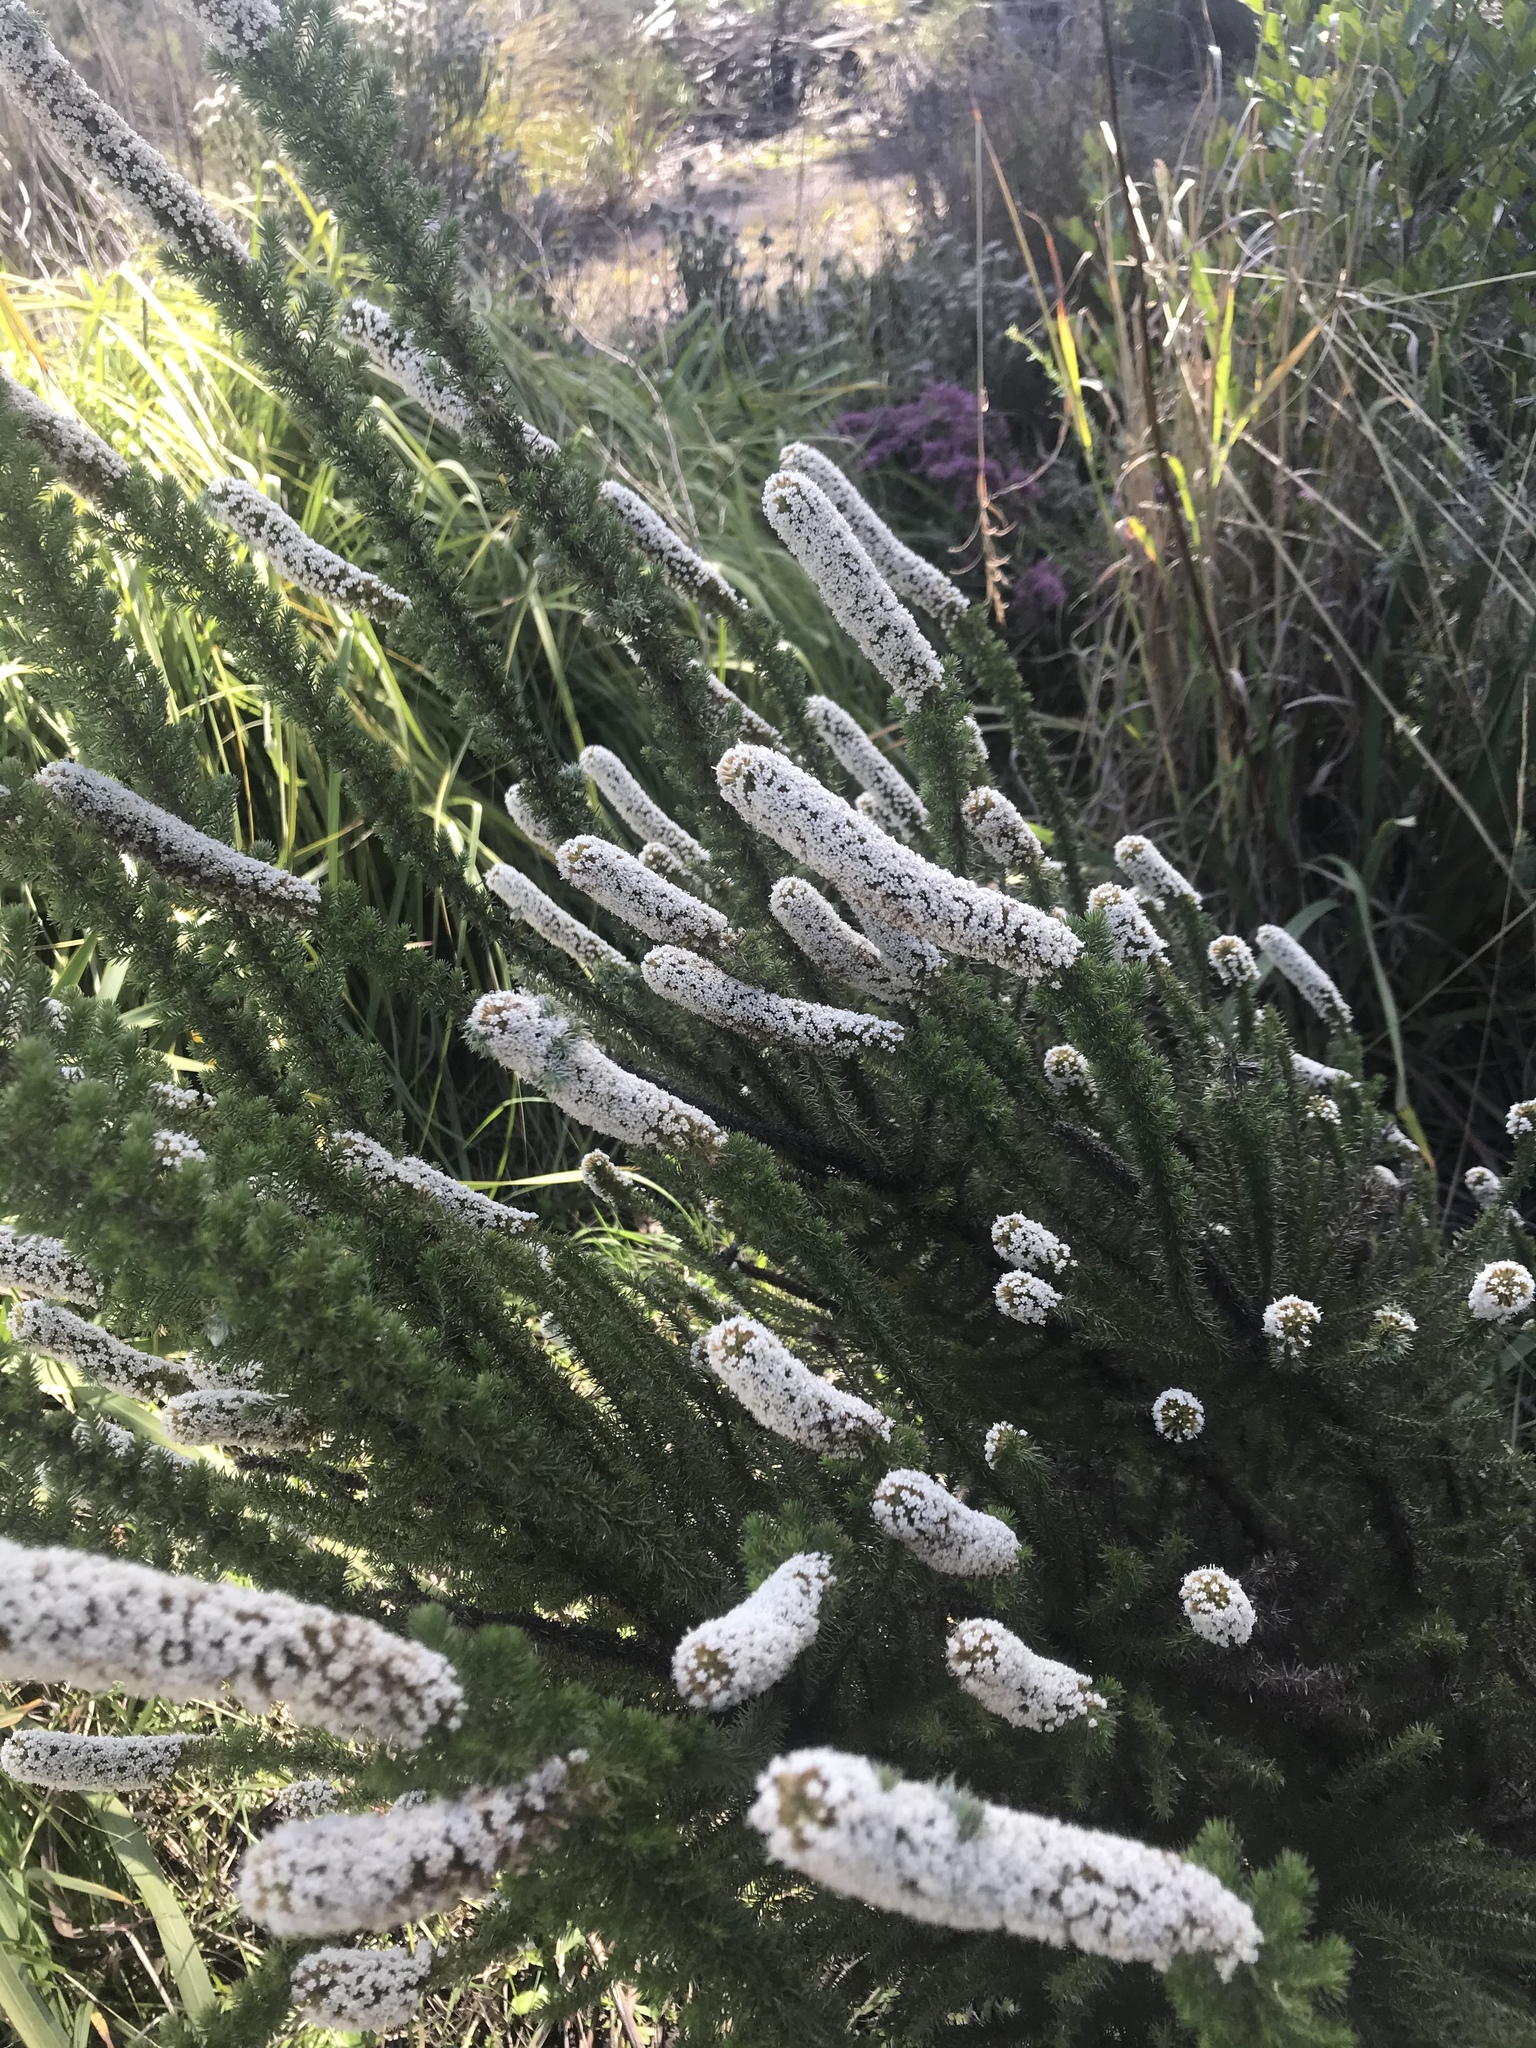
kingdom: Plantae
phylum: Tracheophyta
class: Magnoliopsida
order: Asterales
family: Asteraceae
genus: Stoebe
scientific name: Stoebe alopecuroides
